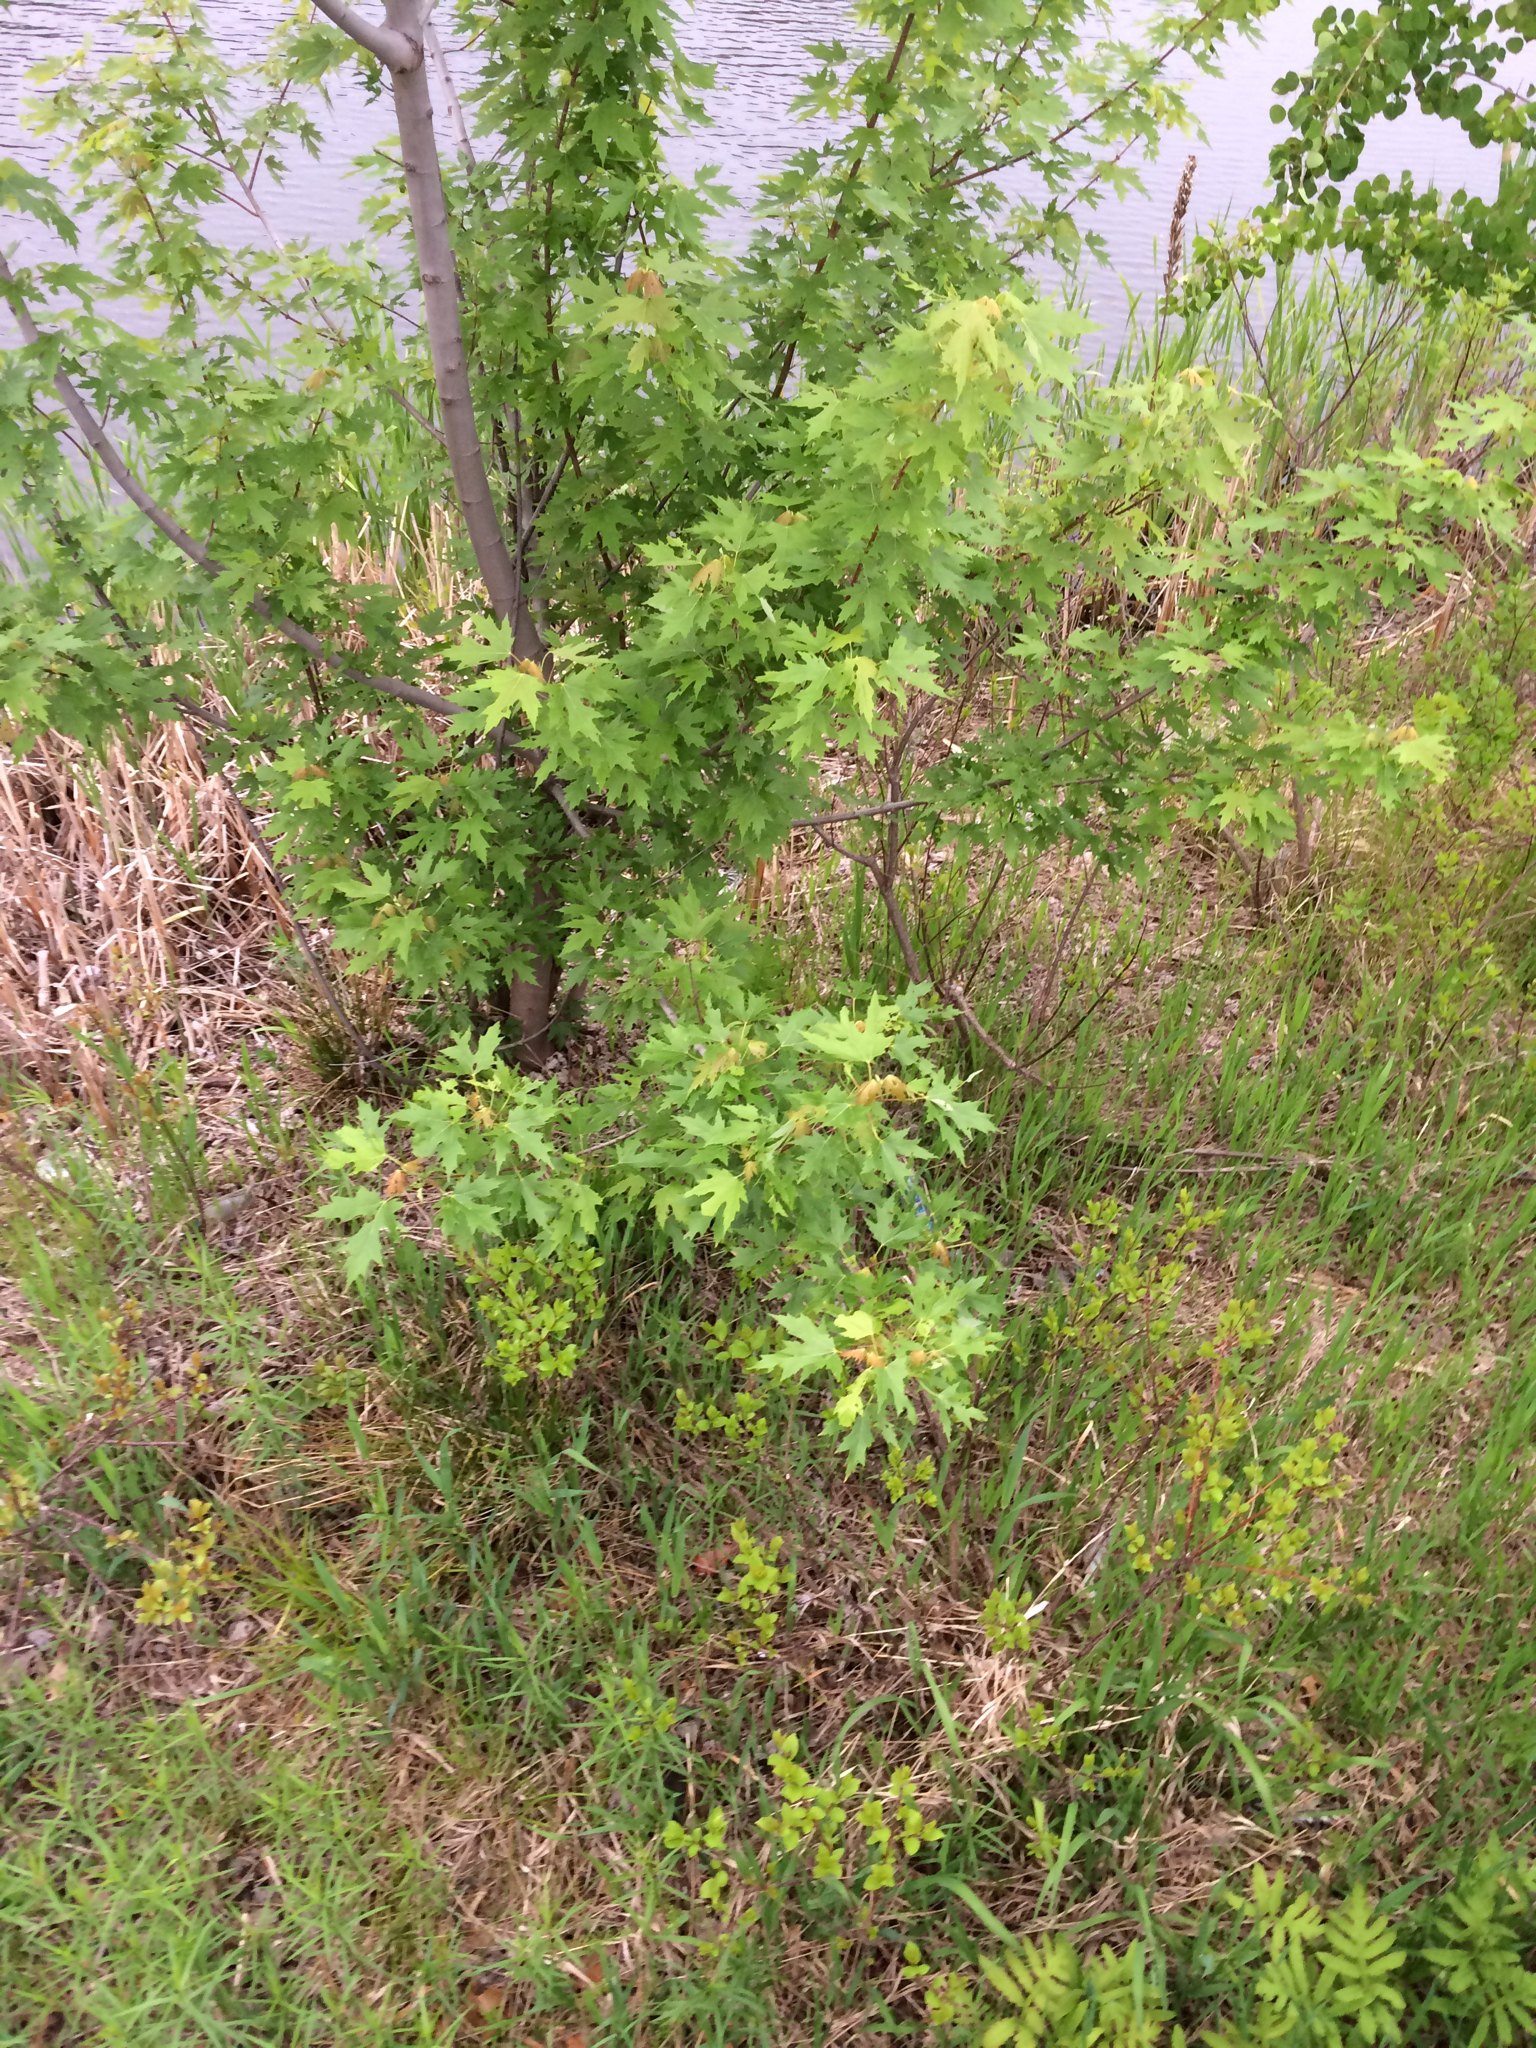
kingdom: Plantae
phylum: Tracheophyta
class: Magnoliopsida
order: Sapindales
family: Sapindaceae
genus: Acer
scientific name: Acer saccharinum
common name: Silver maple
